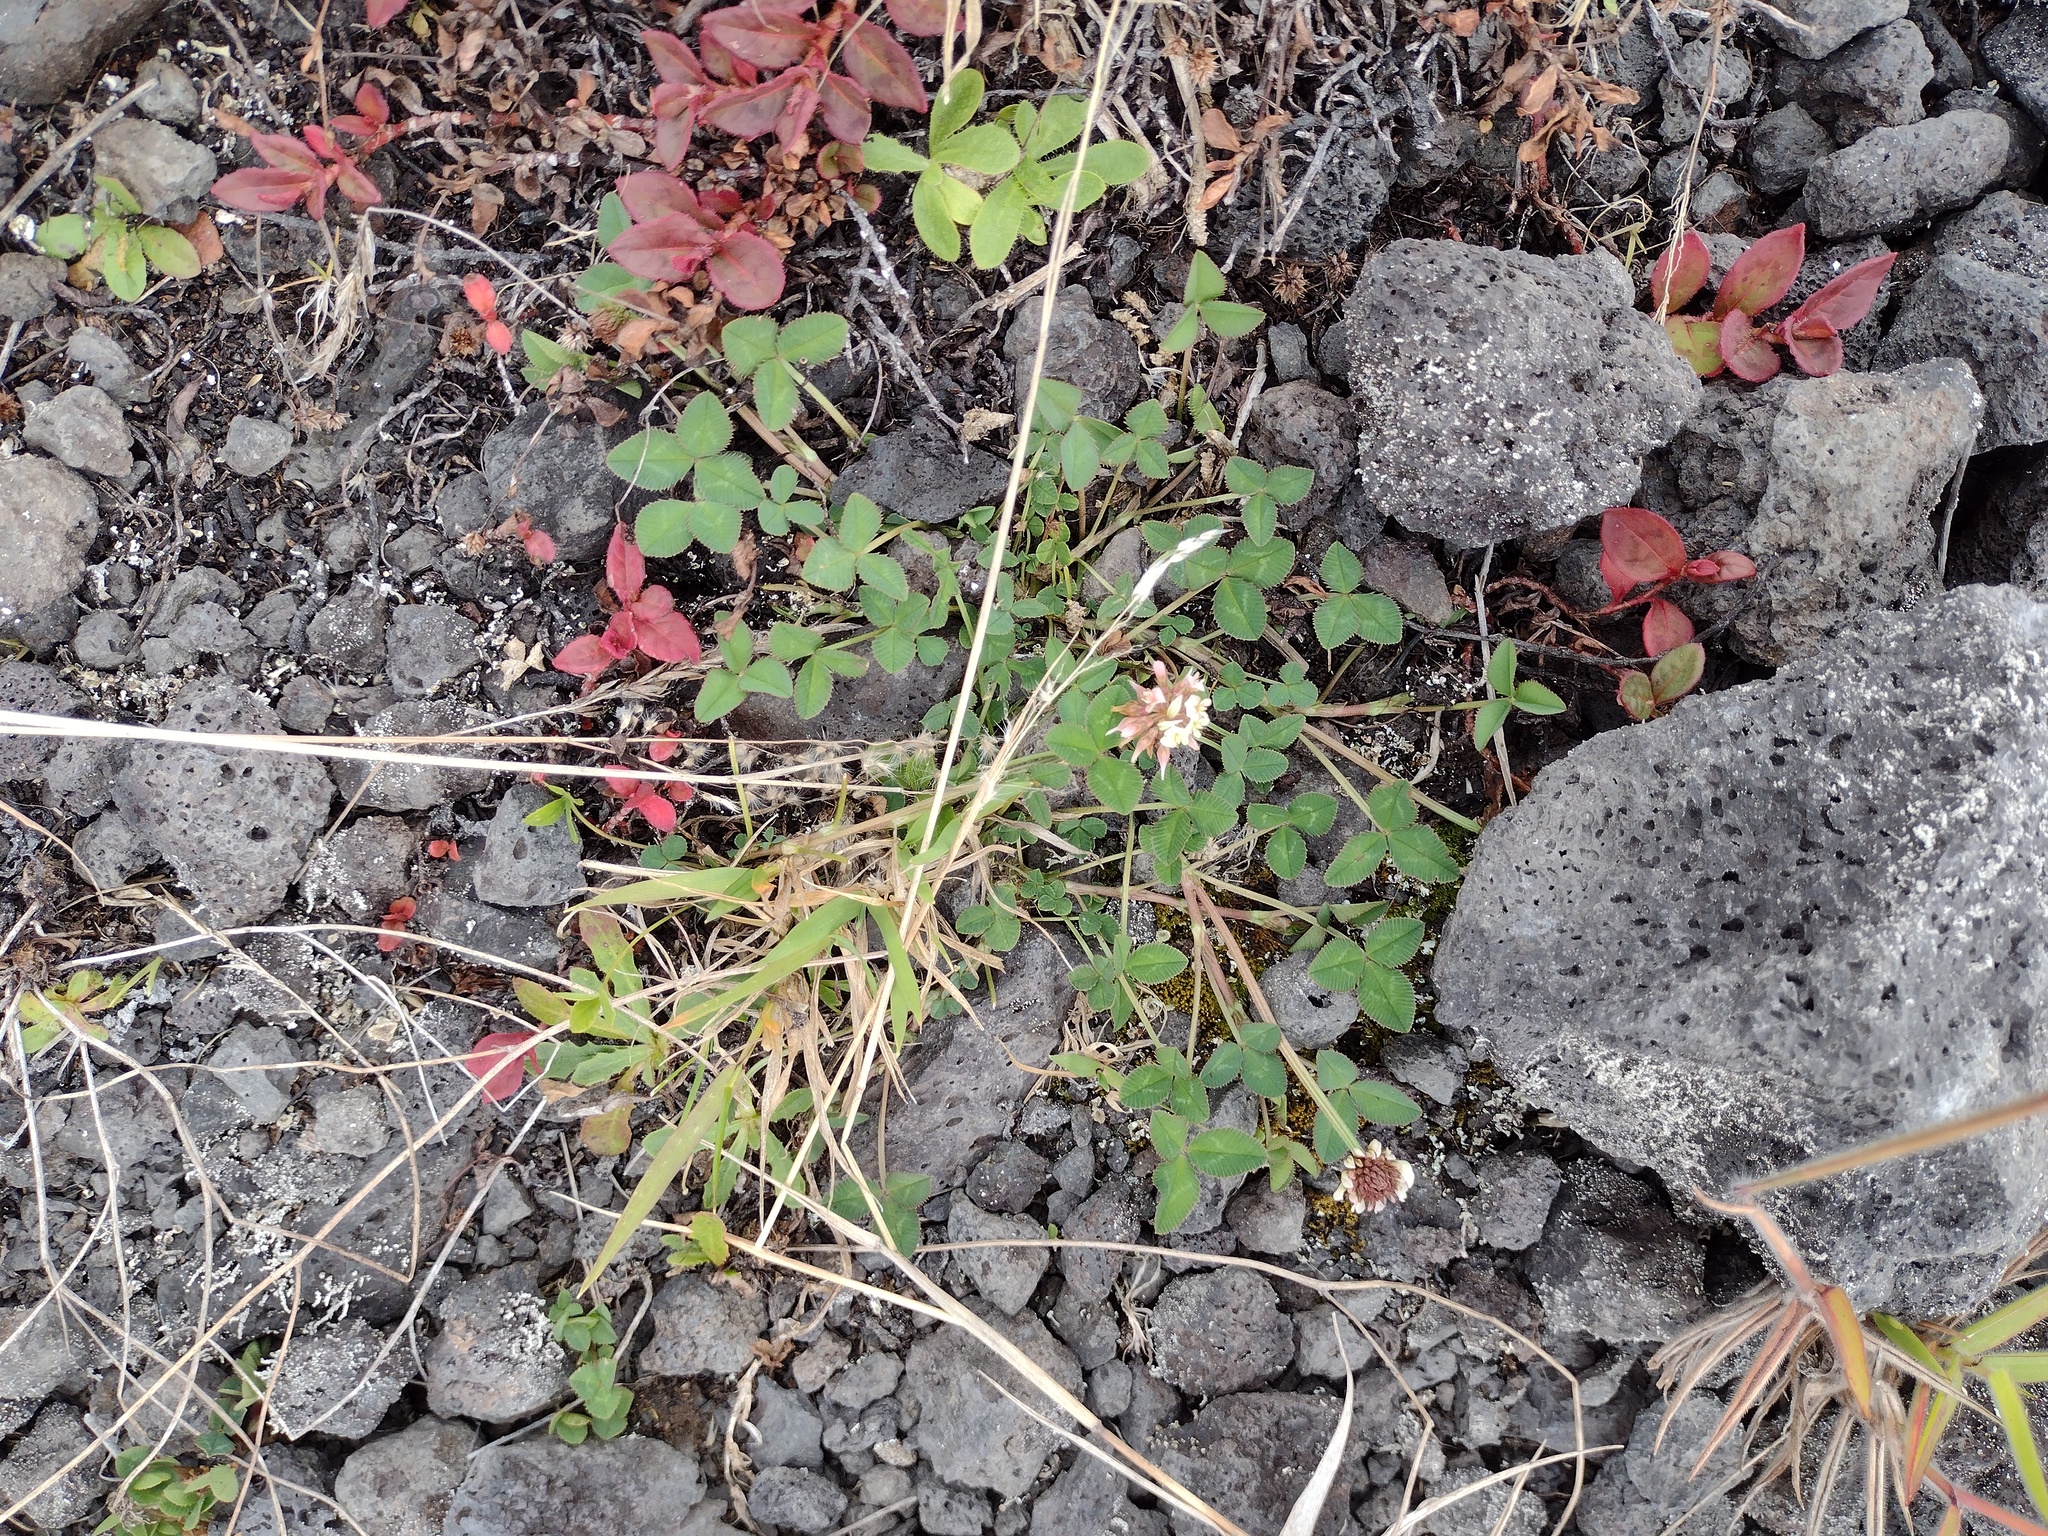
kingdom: Plantae
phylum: Tracheophyta
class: Magnoliopsida
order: Fabales
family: Fabaceae
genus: Trifolium
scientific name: Trifolium repens
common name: White clover
